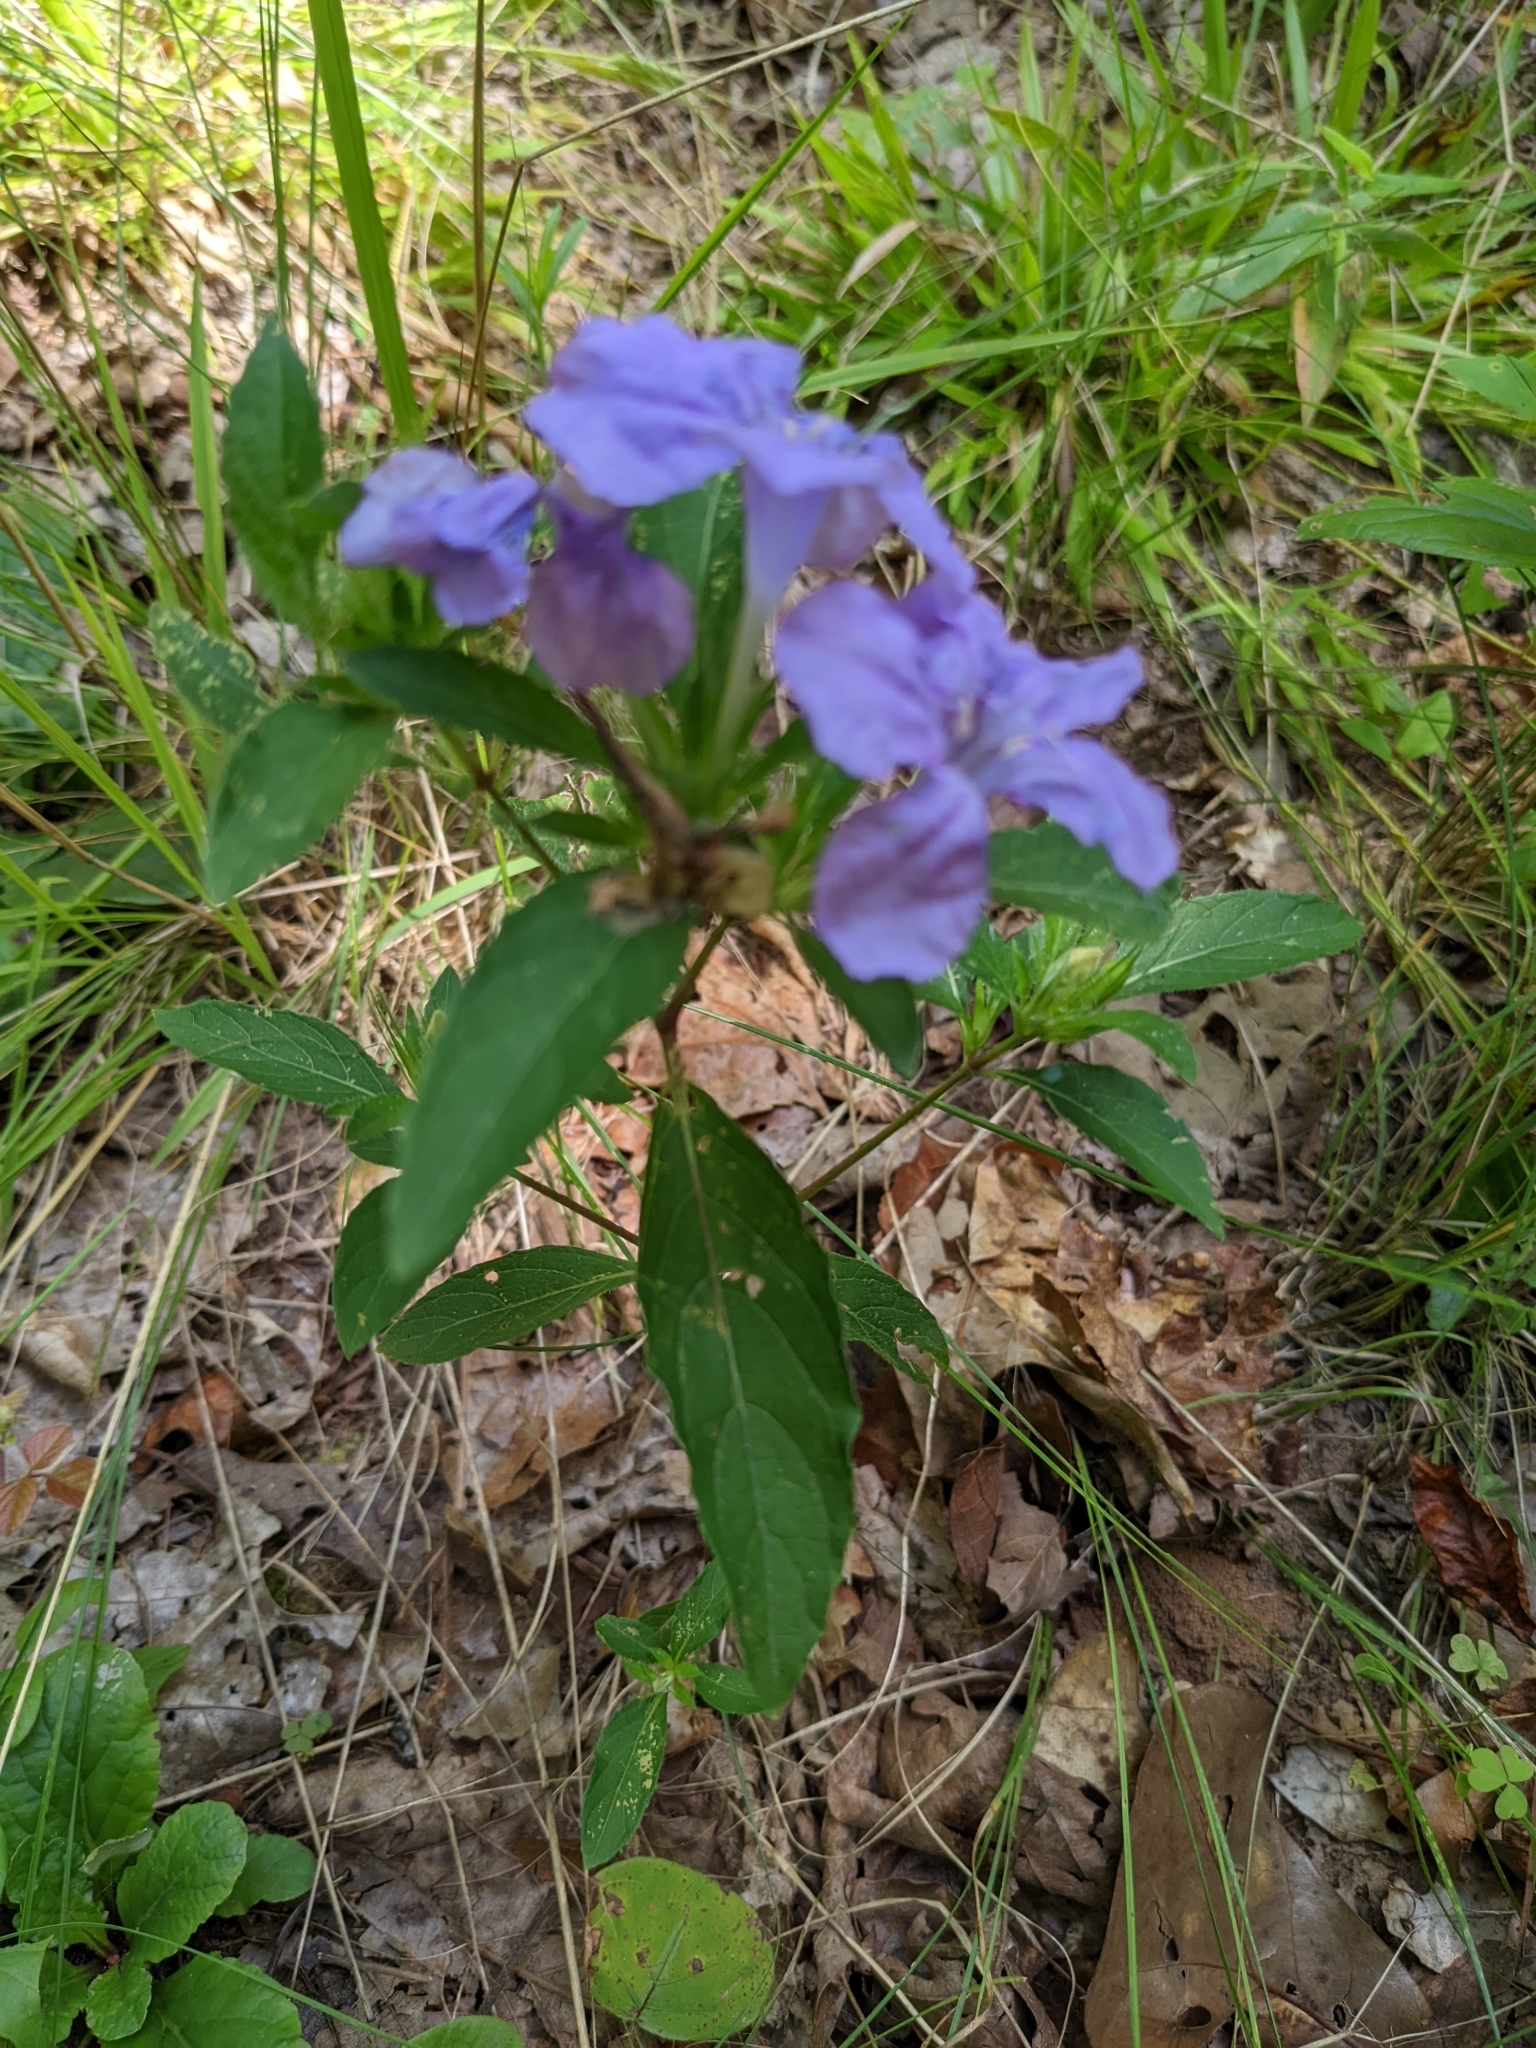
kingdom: Plantae
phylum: Tracheophyta
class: Magnoliopsida
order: Lamiales
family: Acanthaceae
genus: Ruellia
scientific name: Ruellia caroliniensis
